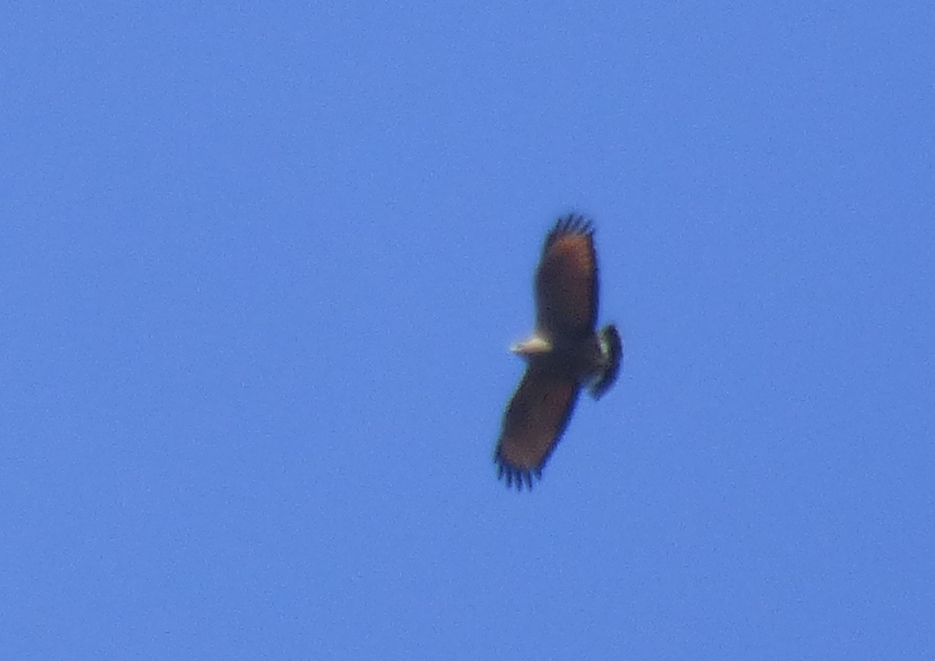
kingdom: Animalia
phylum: Chordata
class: Aves
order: Accipitriformes
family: Accipitridae
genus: Buteogallus
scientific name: Buteogallus meridionalis
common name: Savanna hawk
